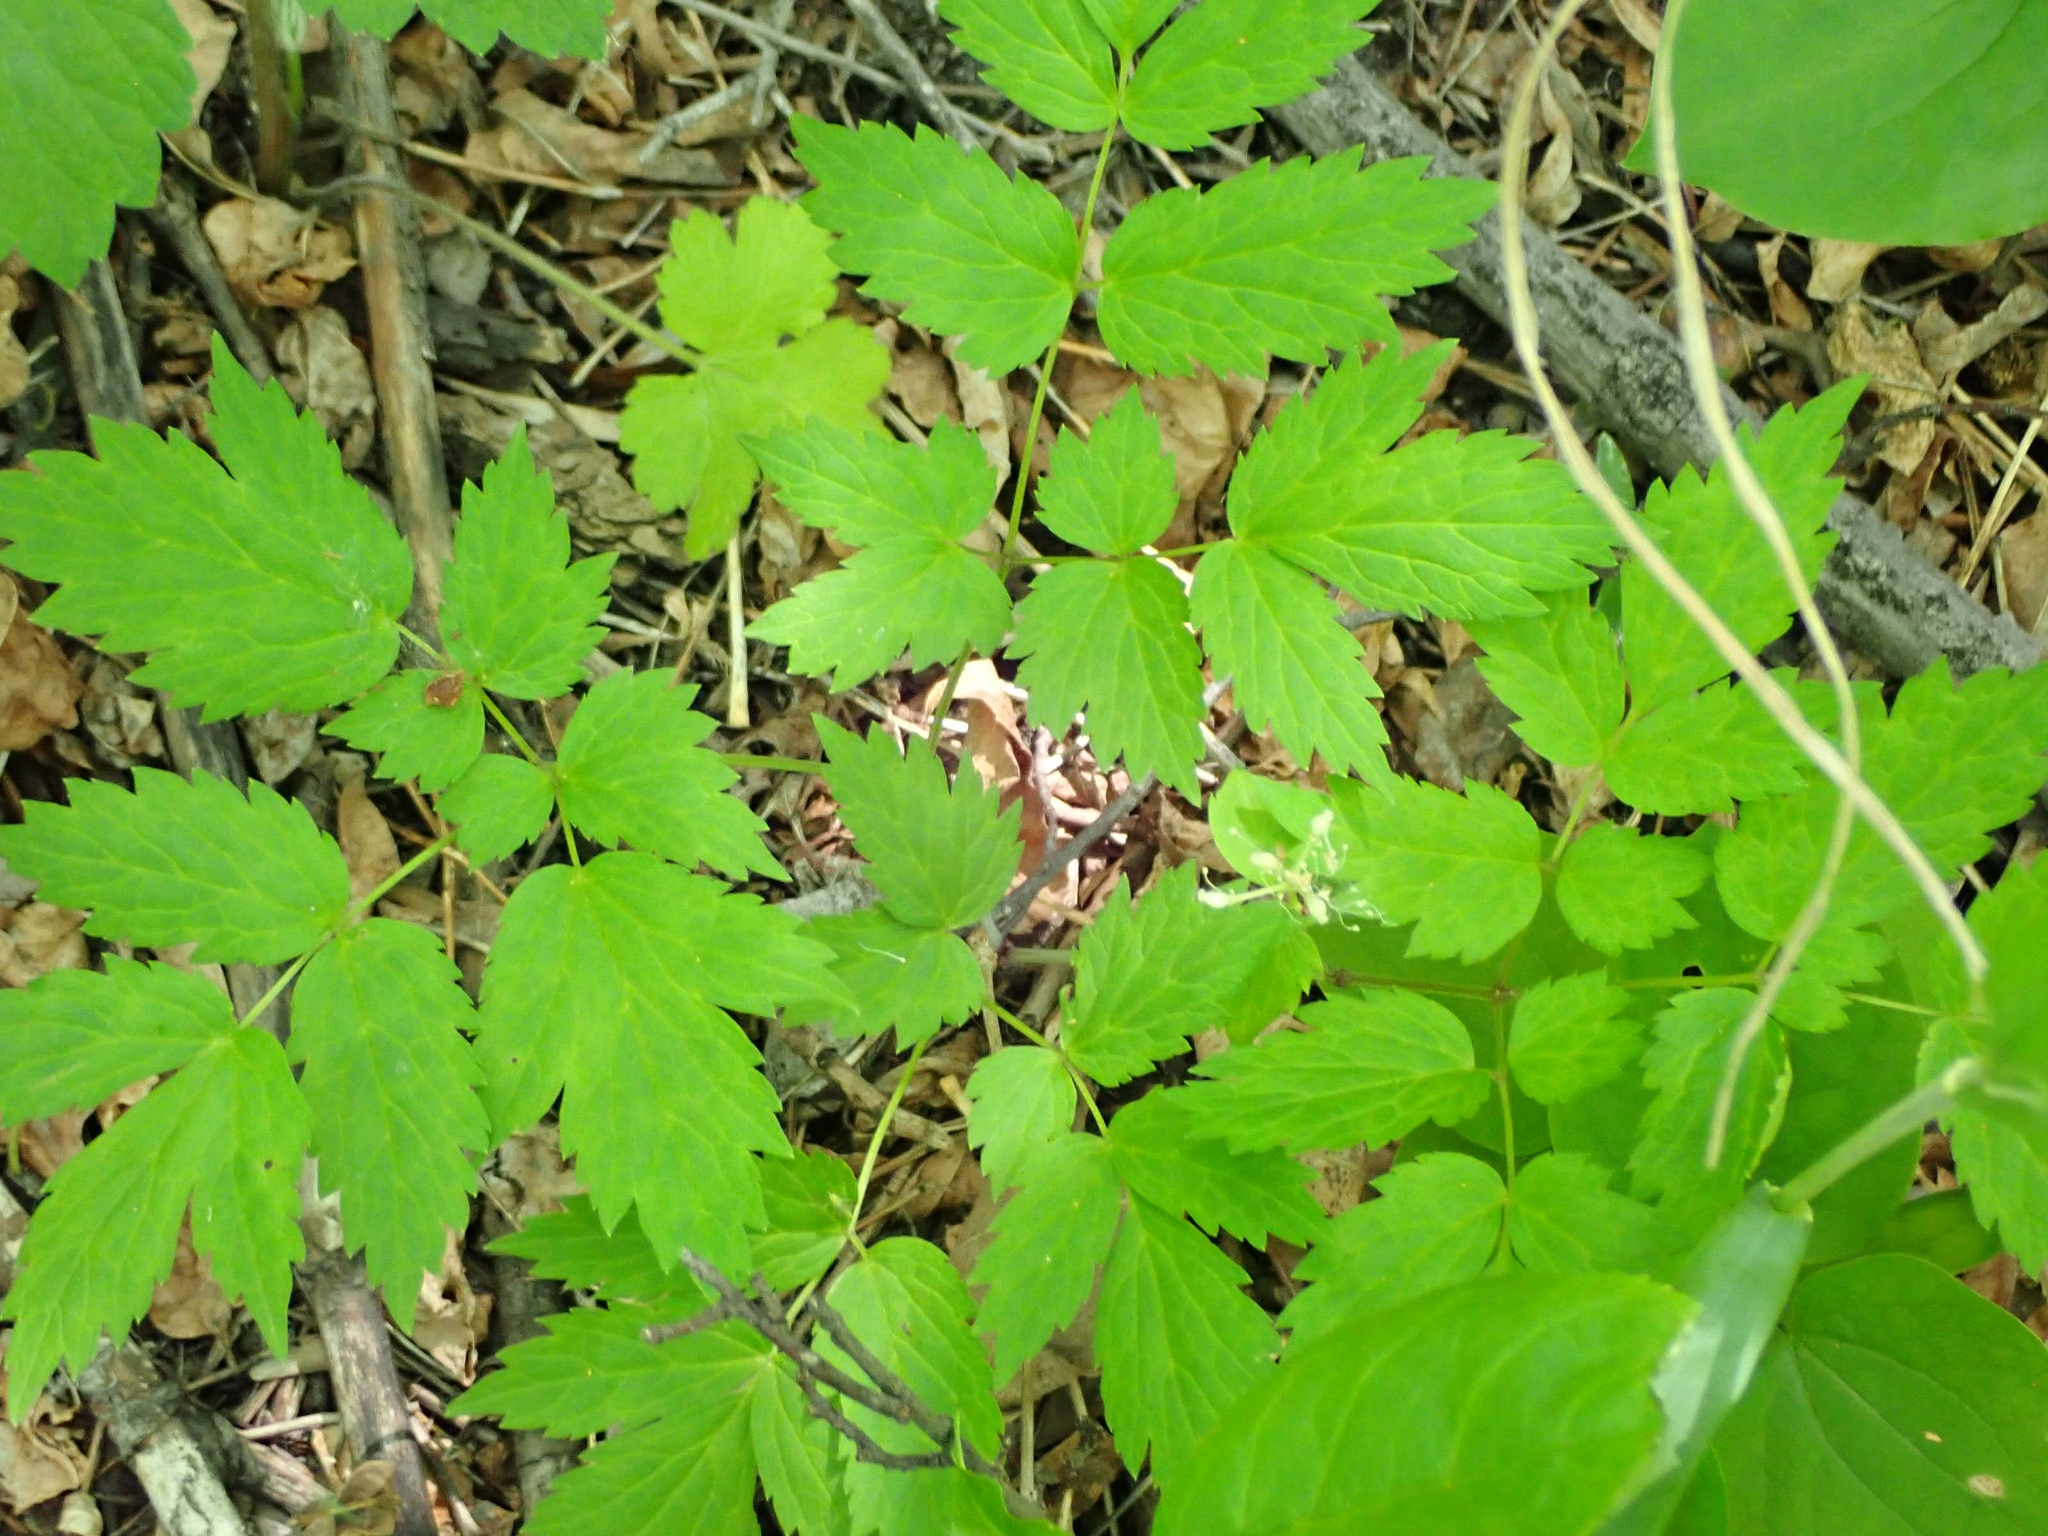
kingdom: Plantae
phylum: Tracheophyta
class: Magnoliopsida
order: Ranunculales
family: Ranunculaceae
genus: Actaea
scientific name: Actaea rubra
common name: Red baneberry
